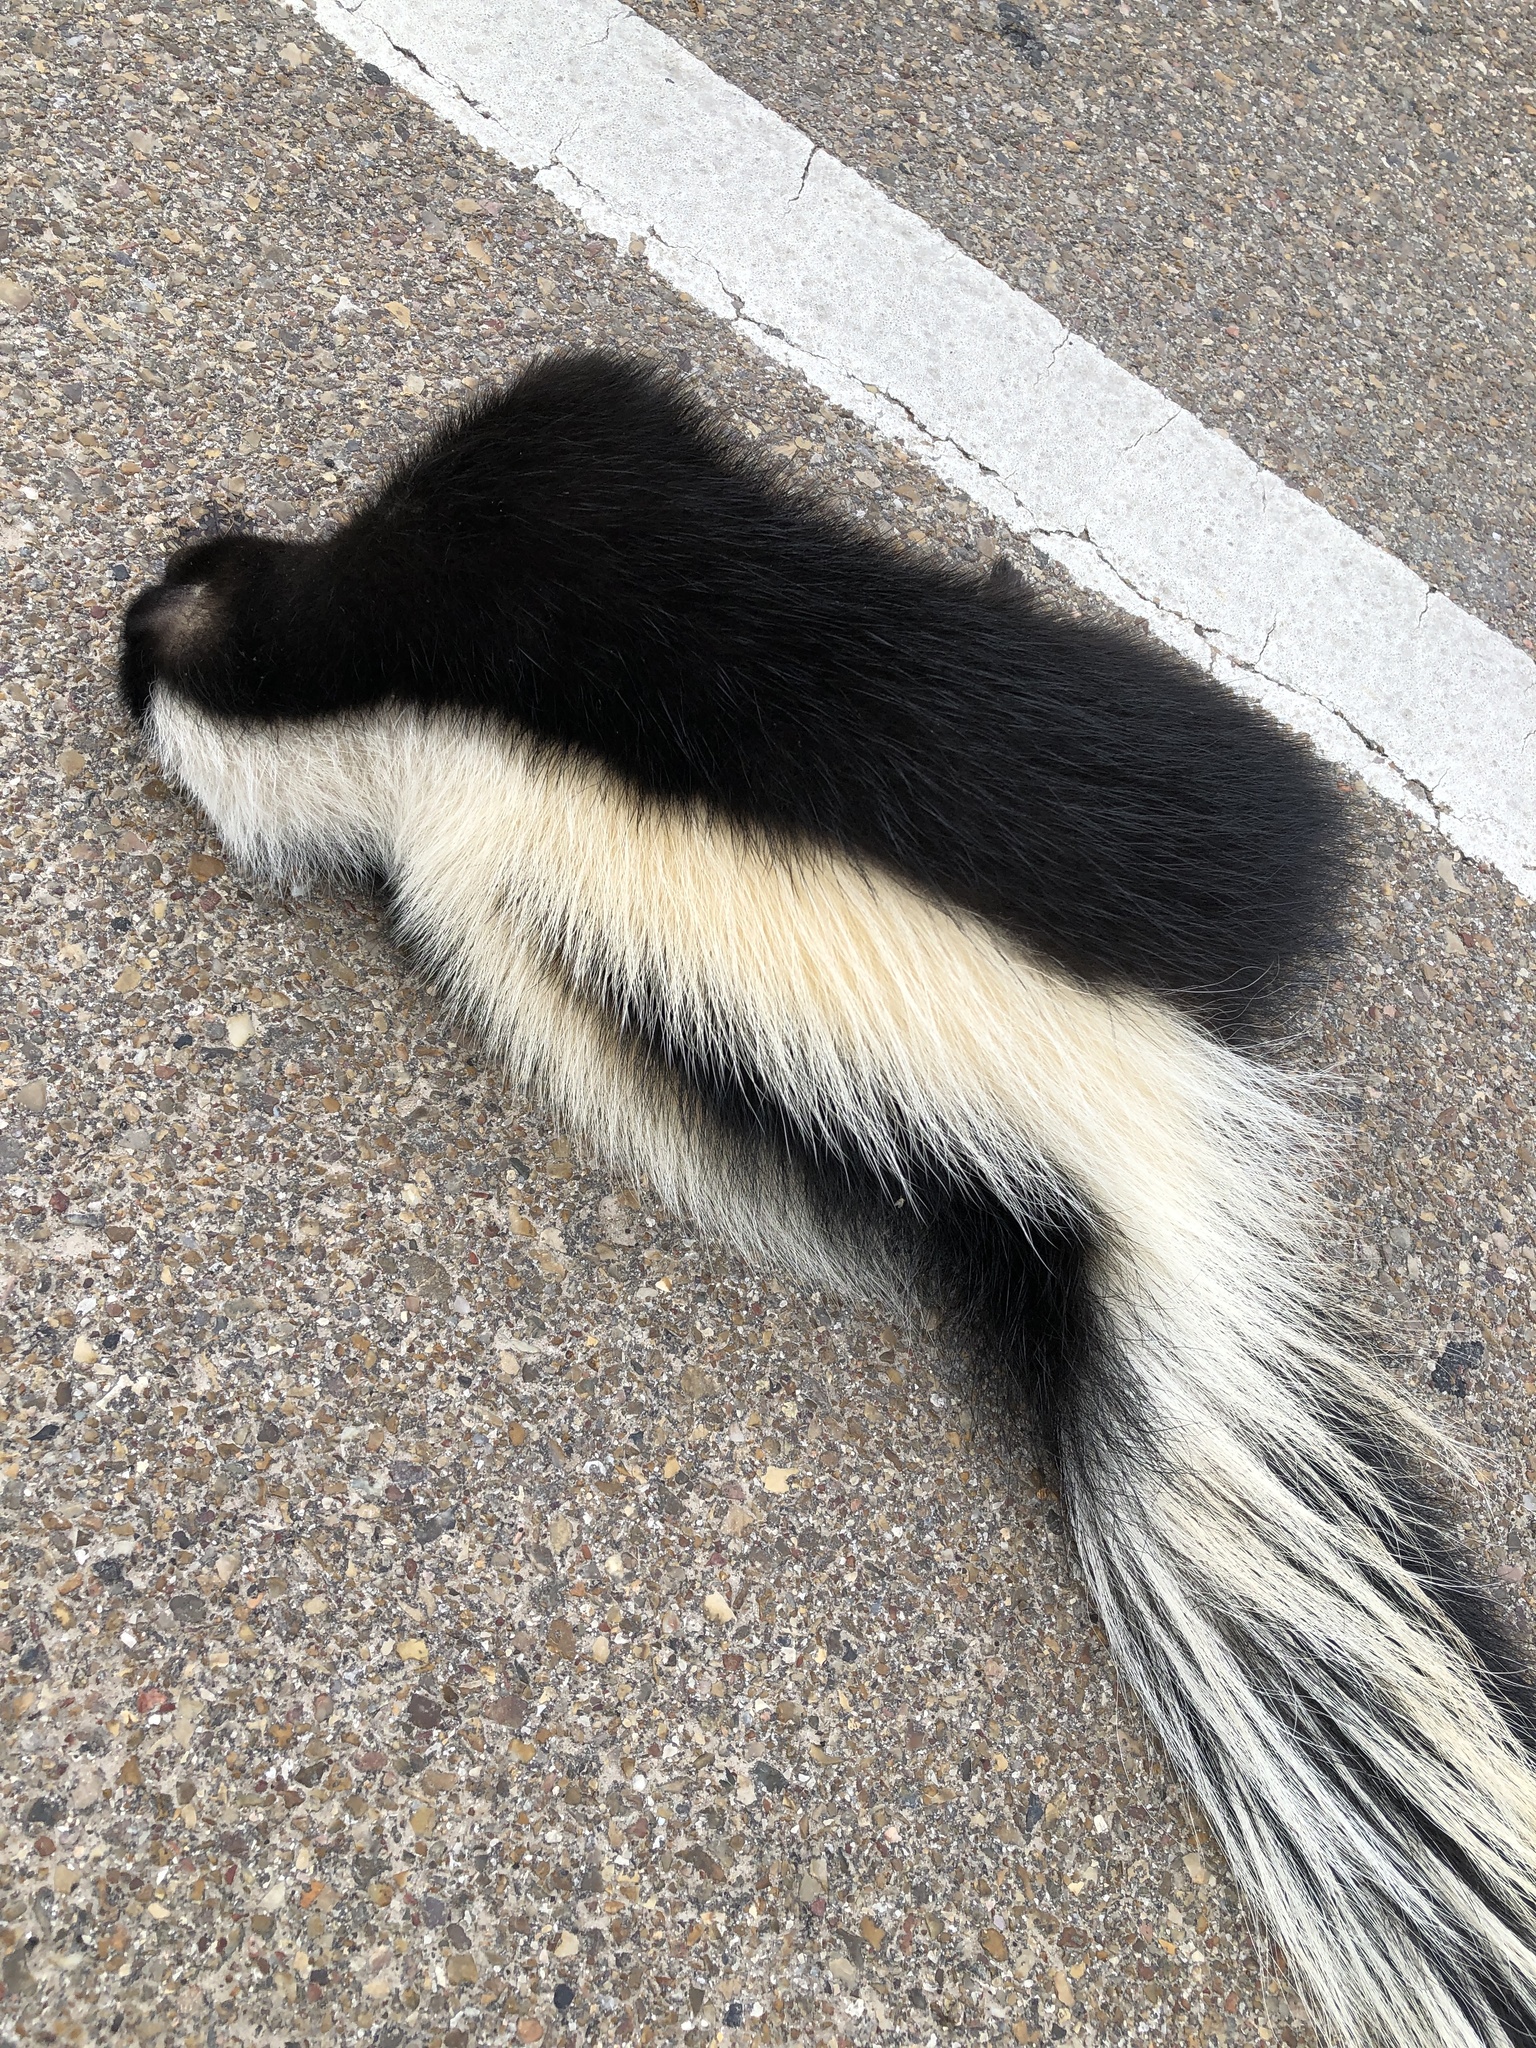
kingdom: Animalia
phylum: Chordata
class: Mammalia
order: Carnivora
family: Mephitidae
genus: Mephitis
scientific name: Mephitis mephitis
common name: Striped skunk
